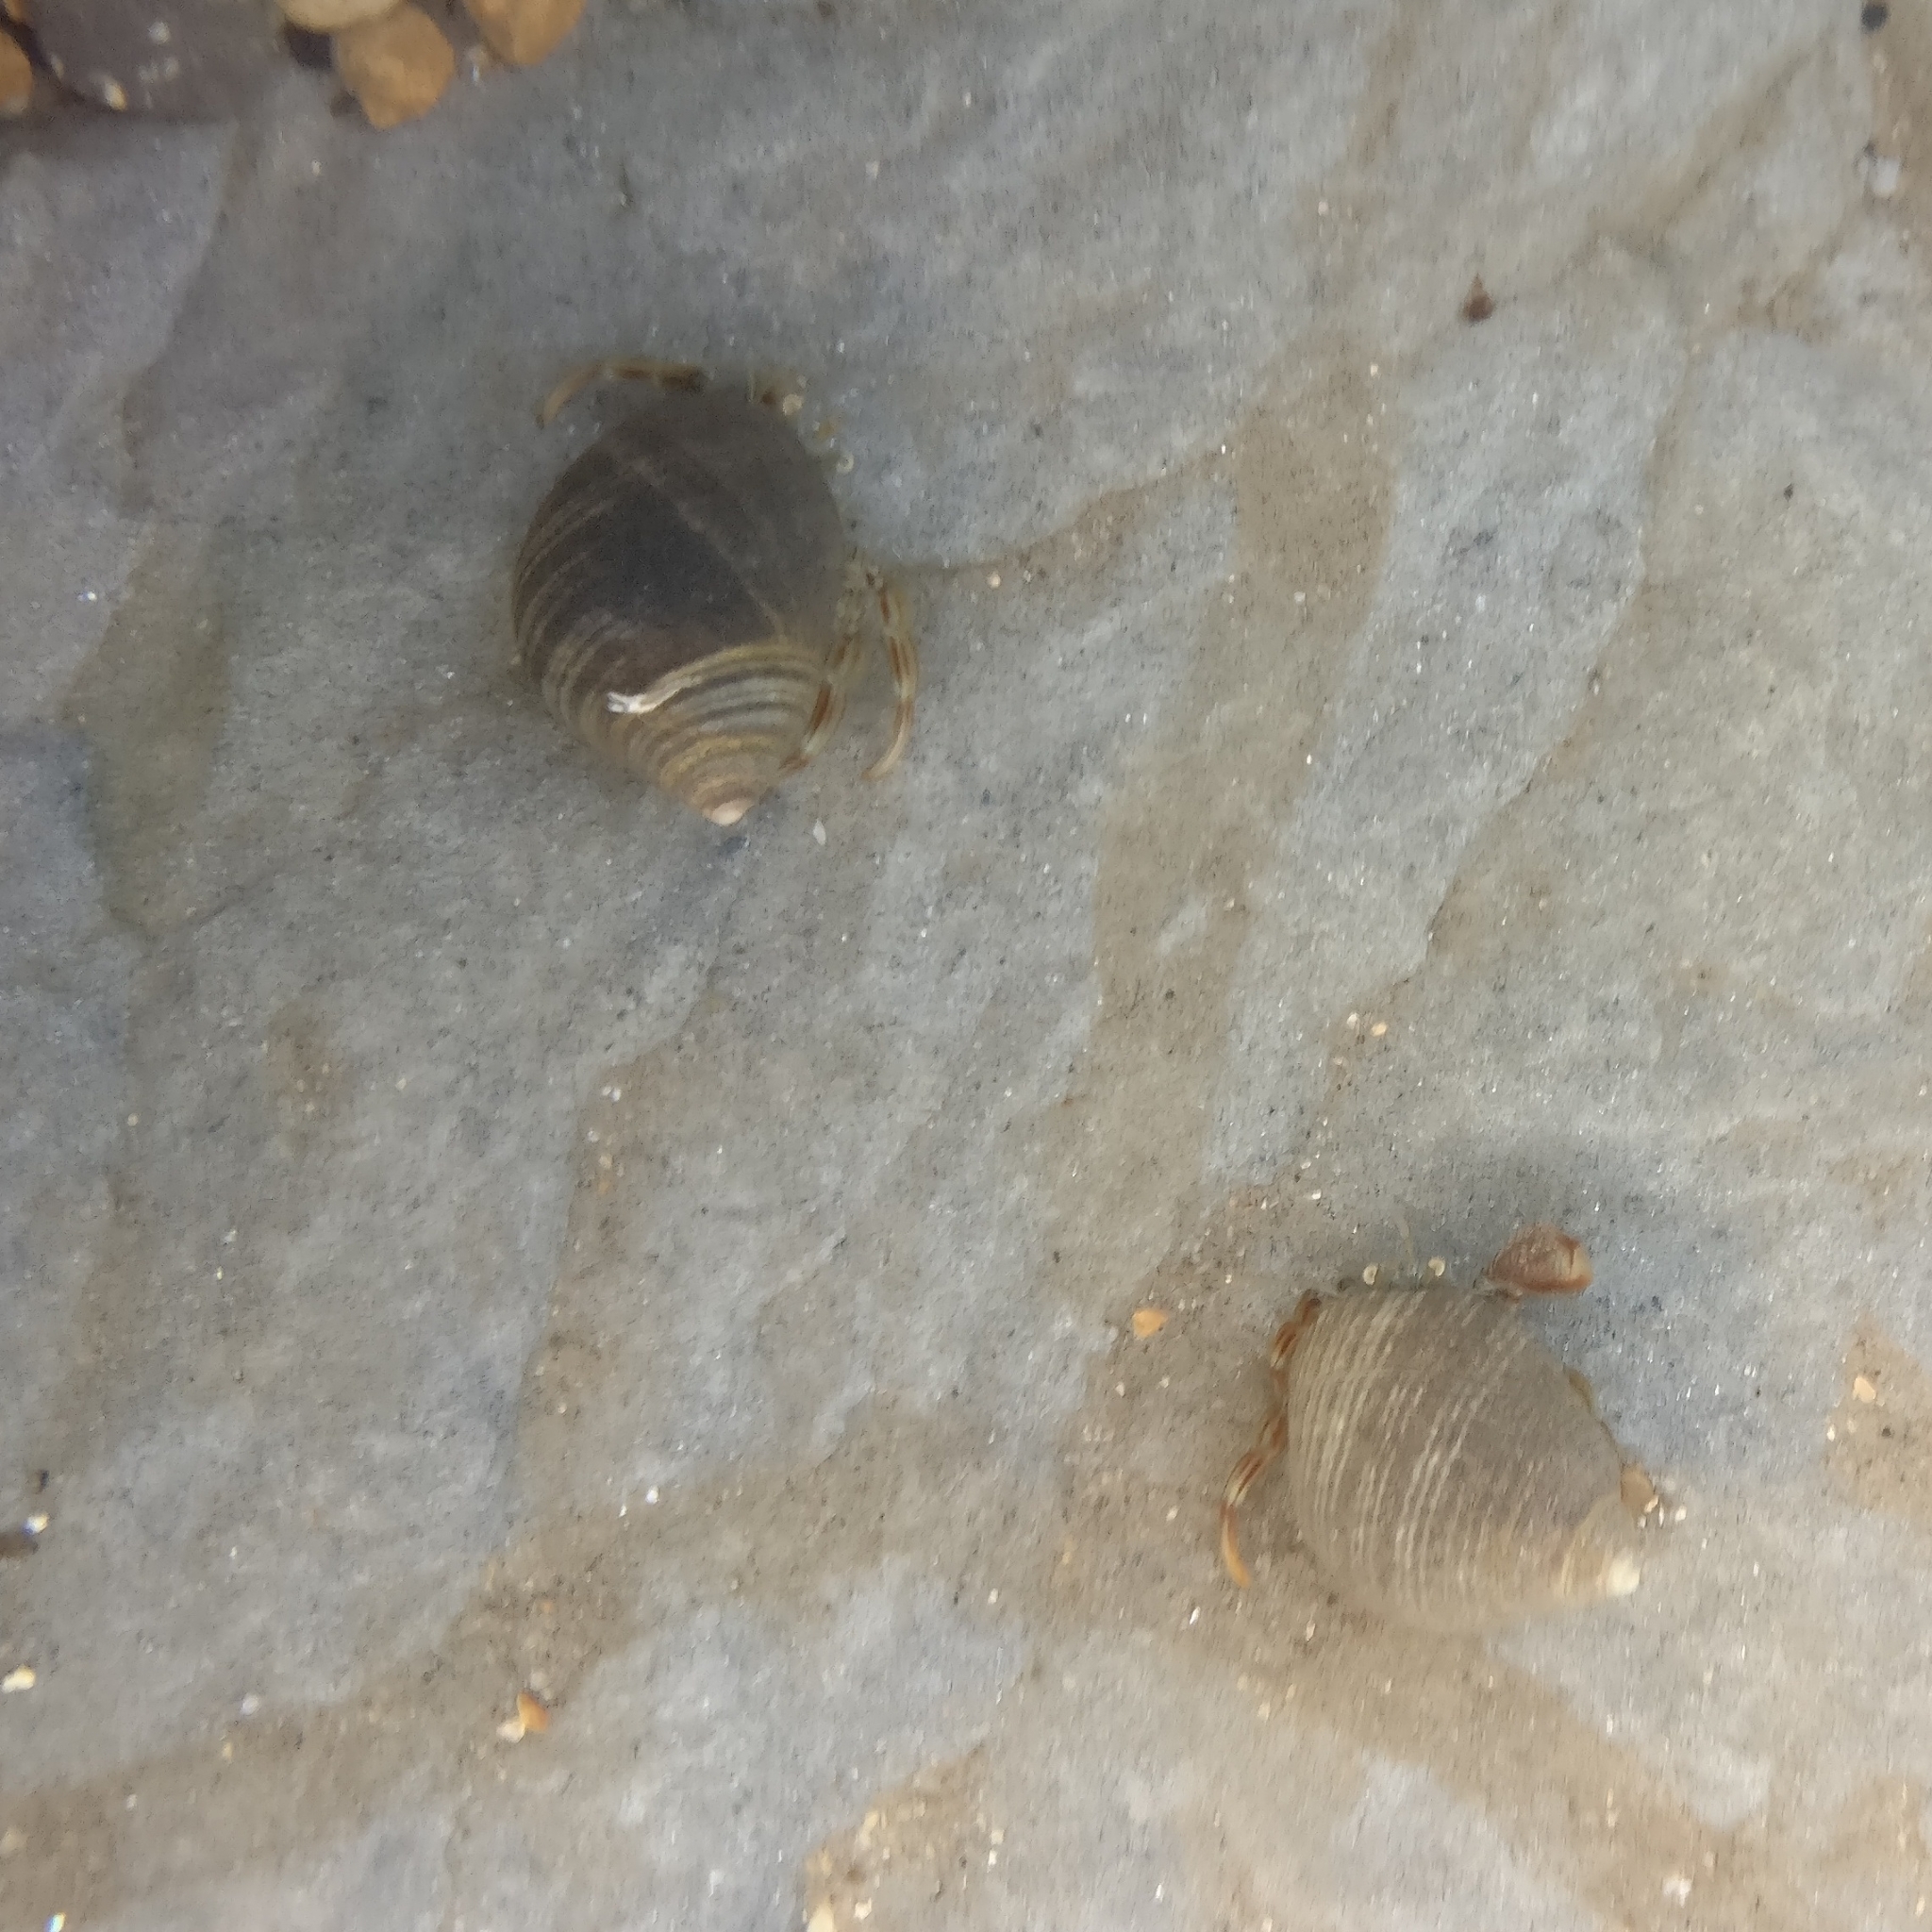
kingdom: Animalia
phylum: Arthropoda
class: Malacostraca
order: Decapoda
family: Paguridae
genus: Pagurus
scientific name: Pagurus bernhardus
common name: Hermit crab
